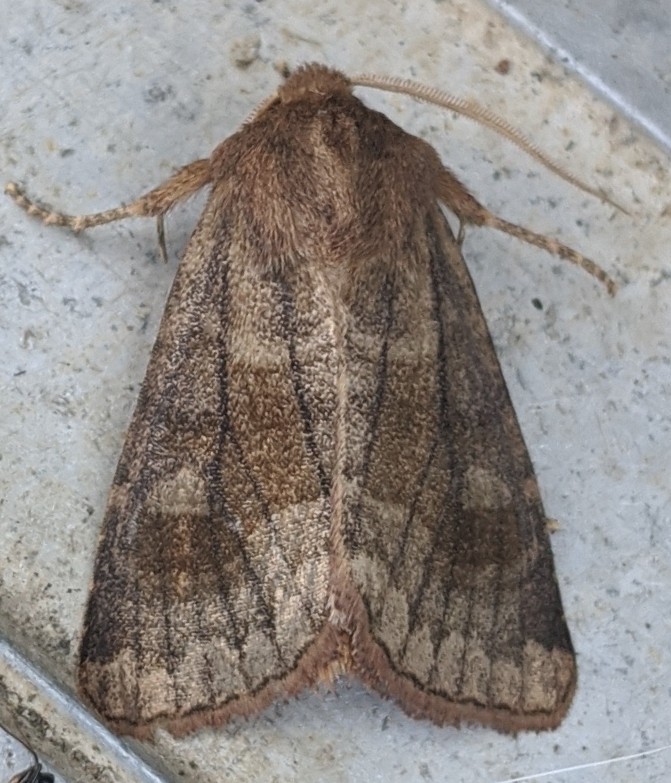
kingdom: Animalia
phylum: Arthropoda
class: Insecta
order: Lepidoptera
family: Noctuidae
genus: Nephelodes
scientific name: Nephelodes minians
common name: Bronzed cutworm
